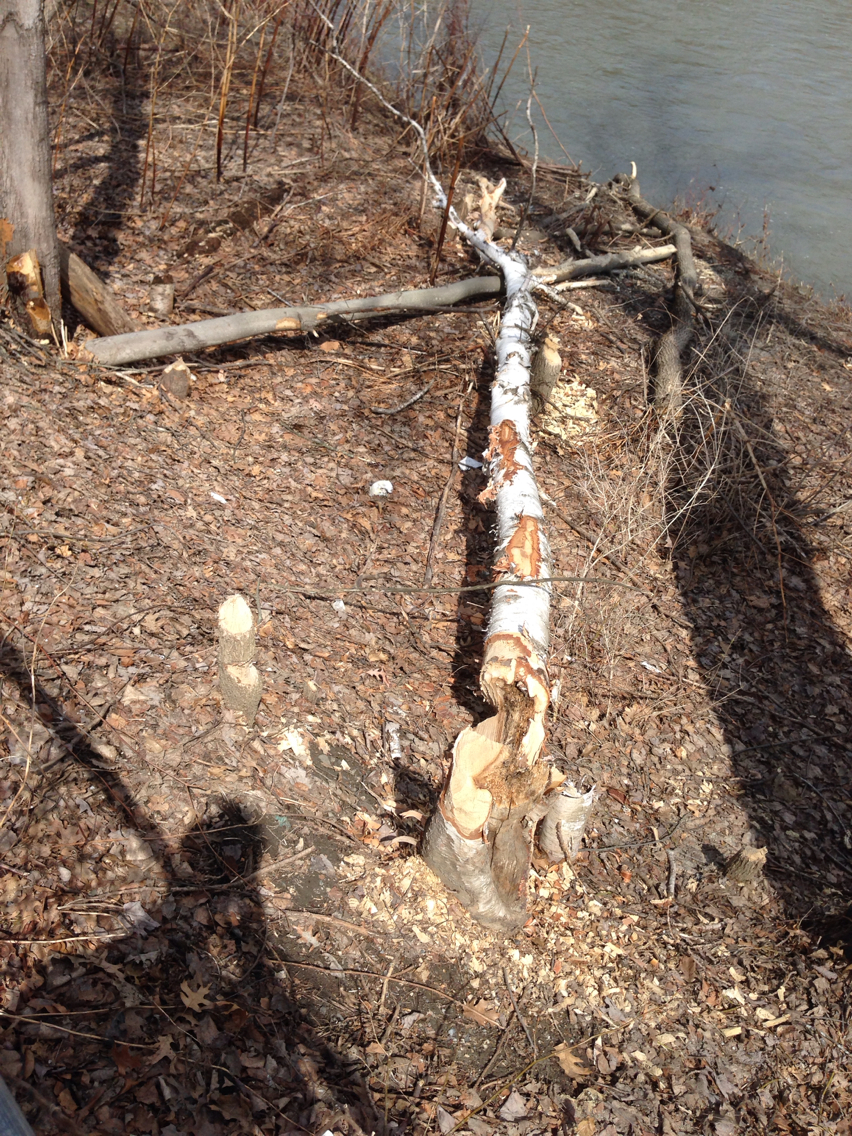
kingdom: Animalia
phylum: Chordata
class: Mammalia
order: Rodentia
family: Castoridae
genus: Castor
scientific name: Castor canadensis
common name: American beaver
